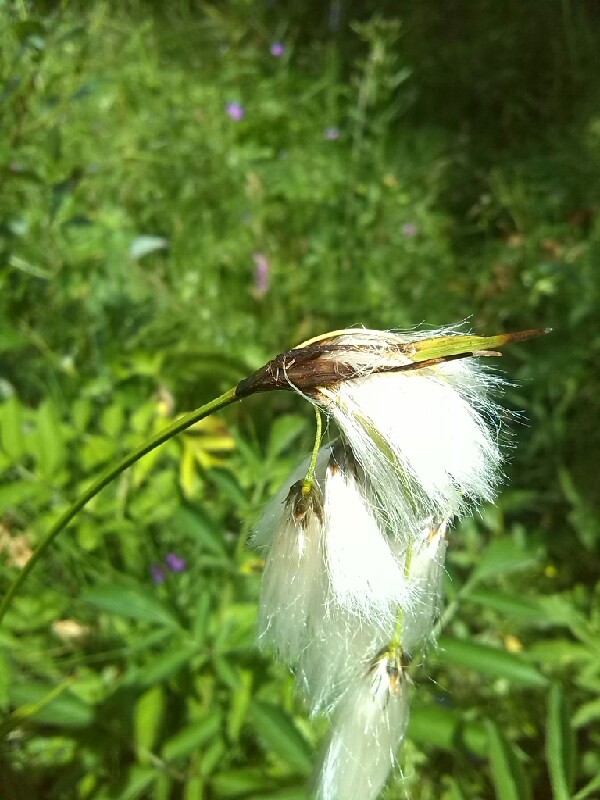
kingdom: Plantae
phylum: Tracheophyta
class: Liliopsida
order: Poales
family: Cyperaceae
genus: Eriophorum
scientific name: Eriophorum latifolium
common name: Broad-leaved cottongrass
